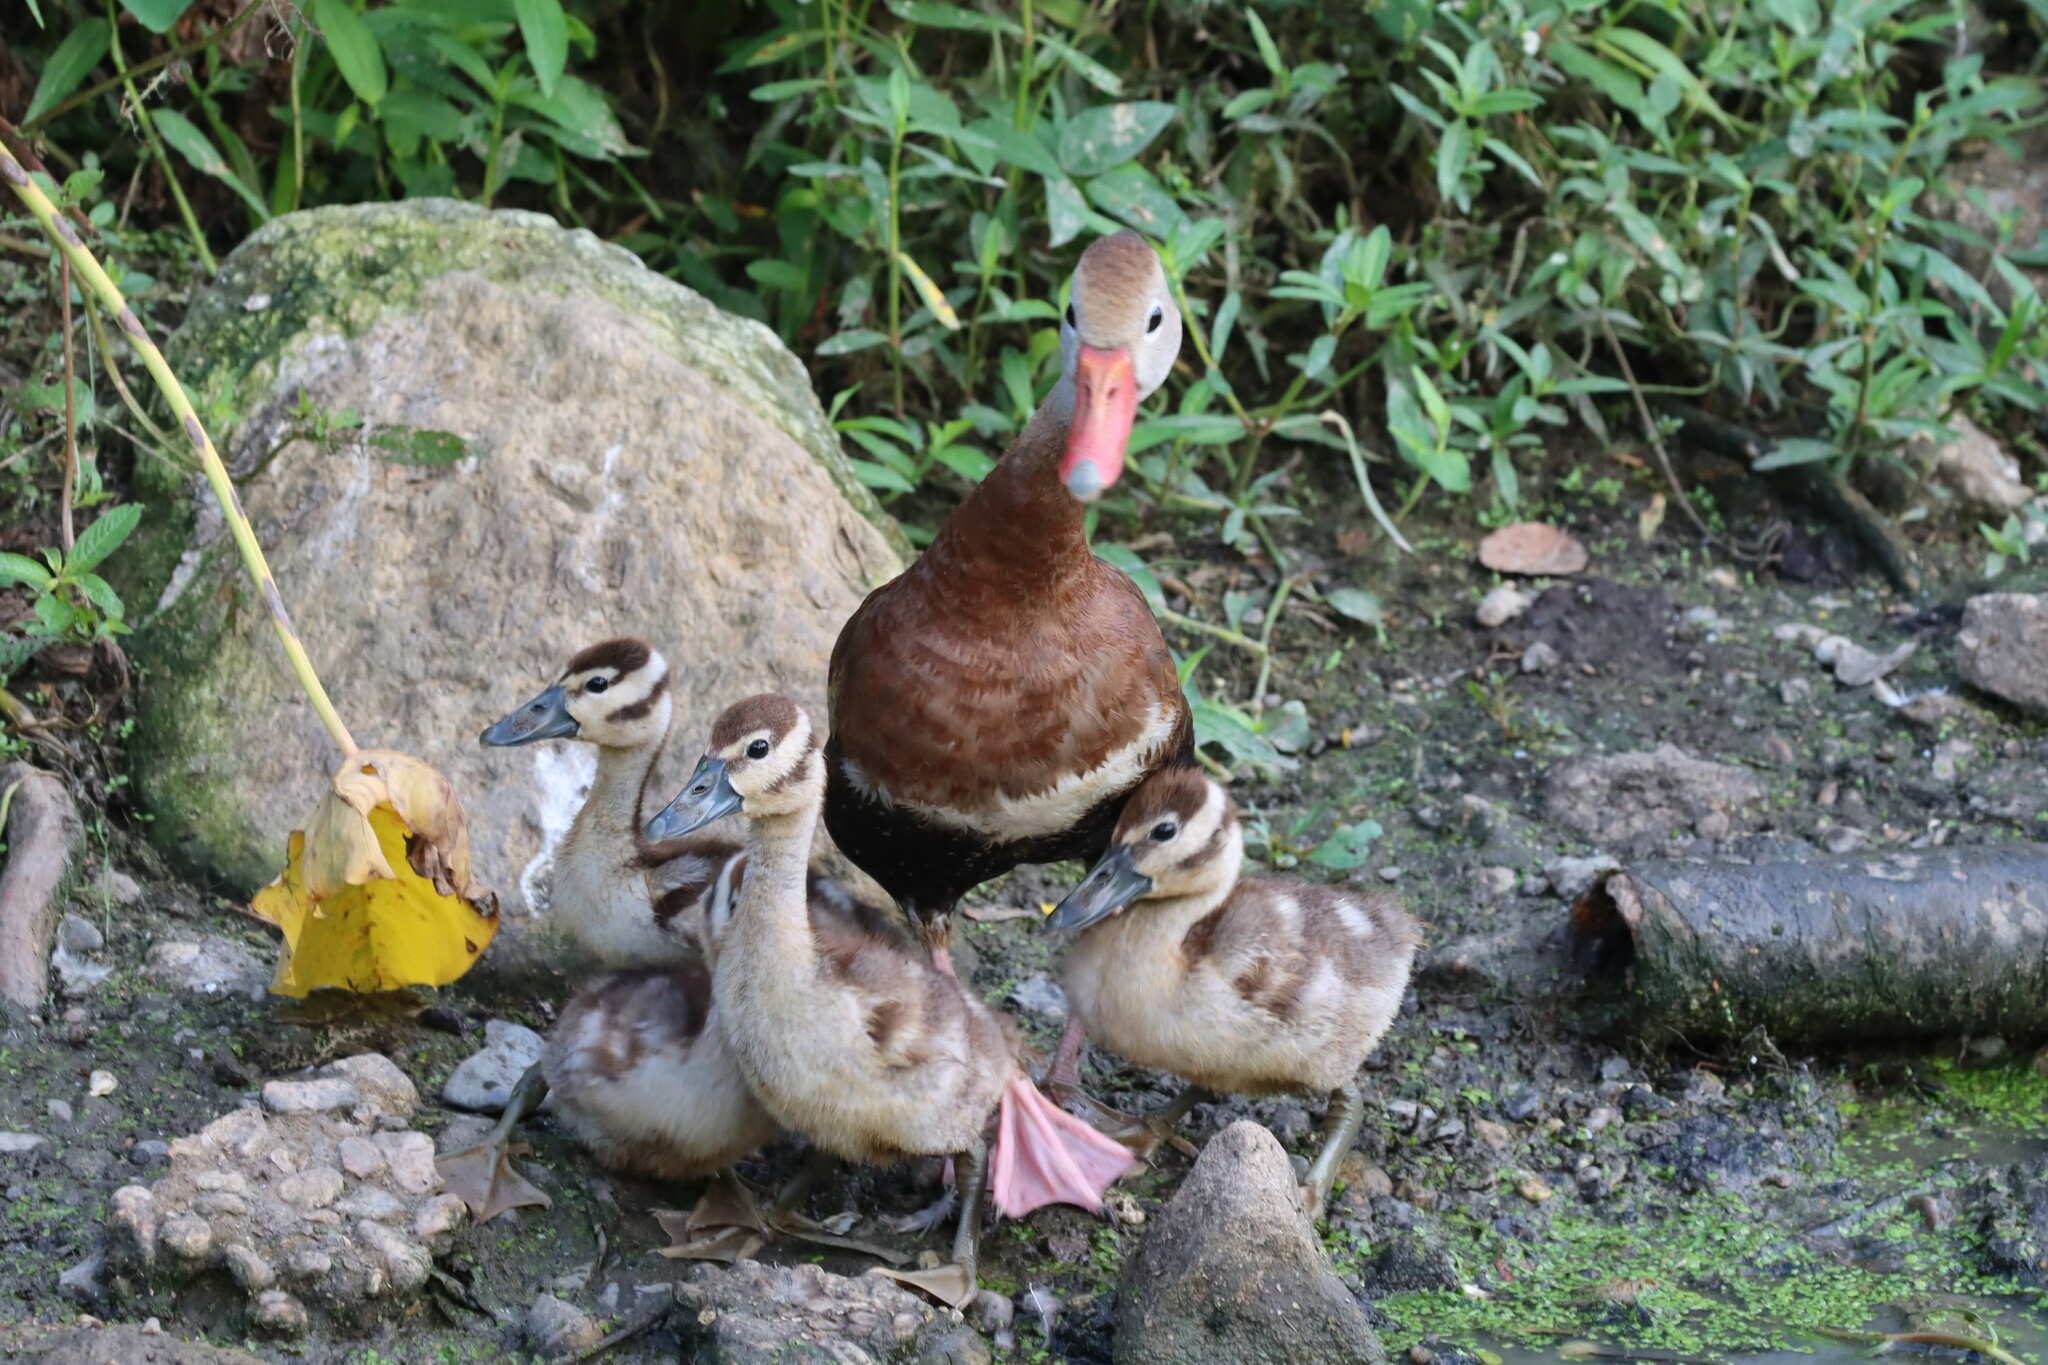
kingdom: Animalia
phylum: Chordata
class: Aves
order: Anseriformes
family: Anatidae
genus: Dendrocygna
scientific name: Dendrocygna autumnalis
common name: Black-bellied whistling duck
